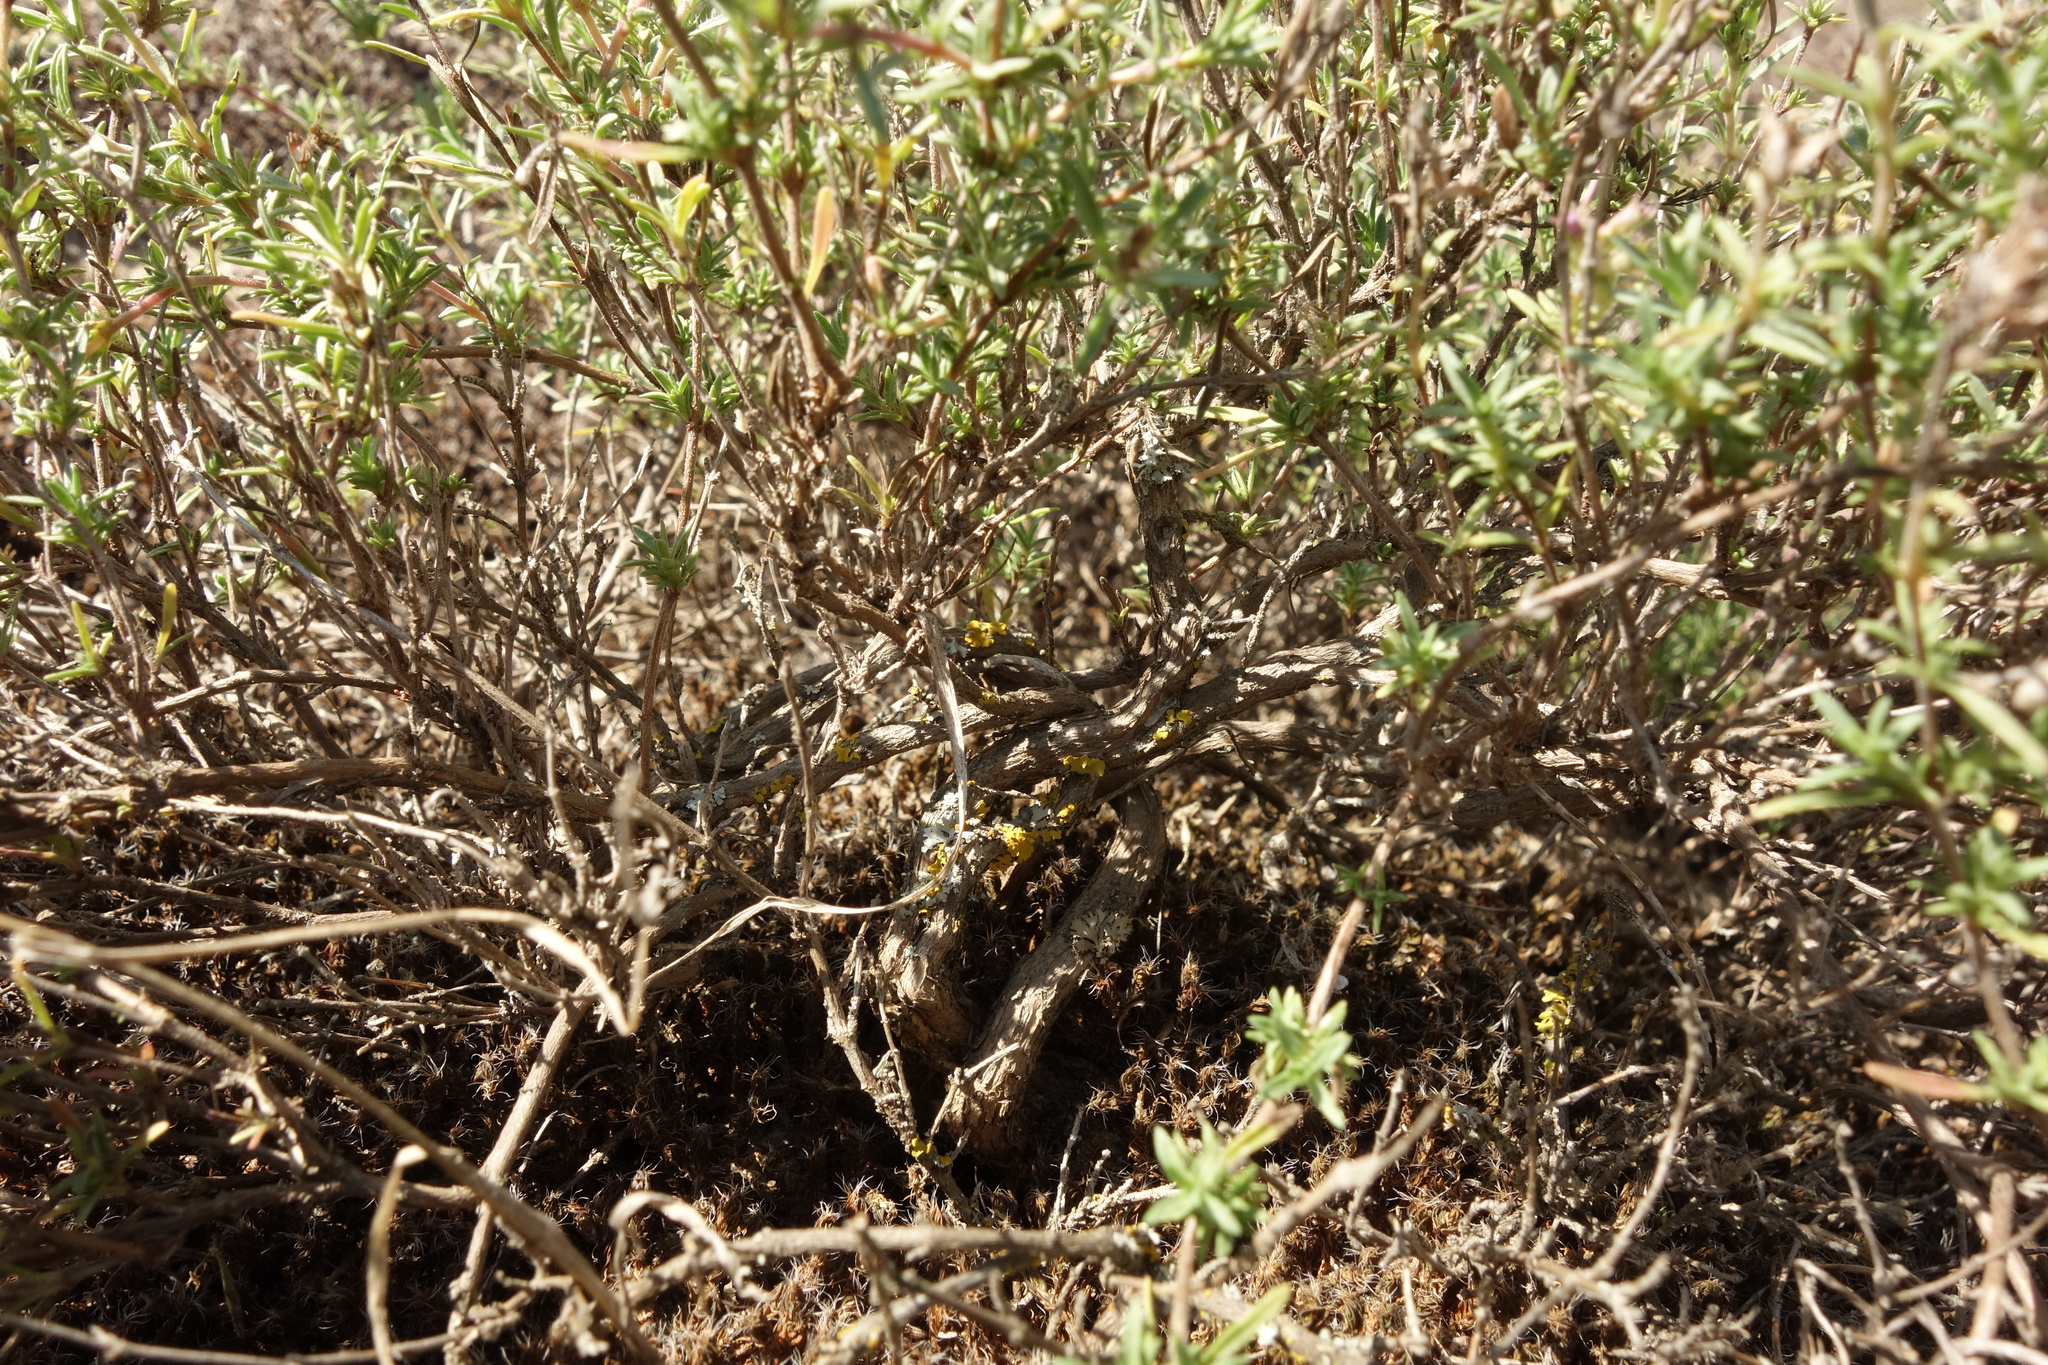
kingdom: Plantae
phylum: Tracheophyta
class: Magnoliopsida
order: Lamiales
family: Lamiaceae
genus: Thymus
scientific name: Thymus pallasianus
